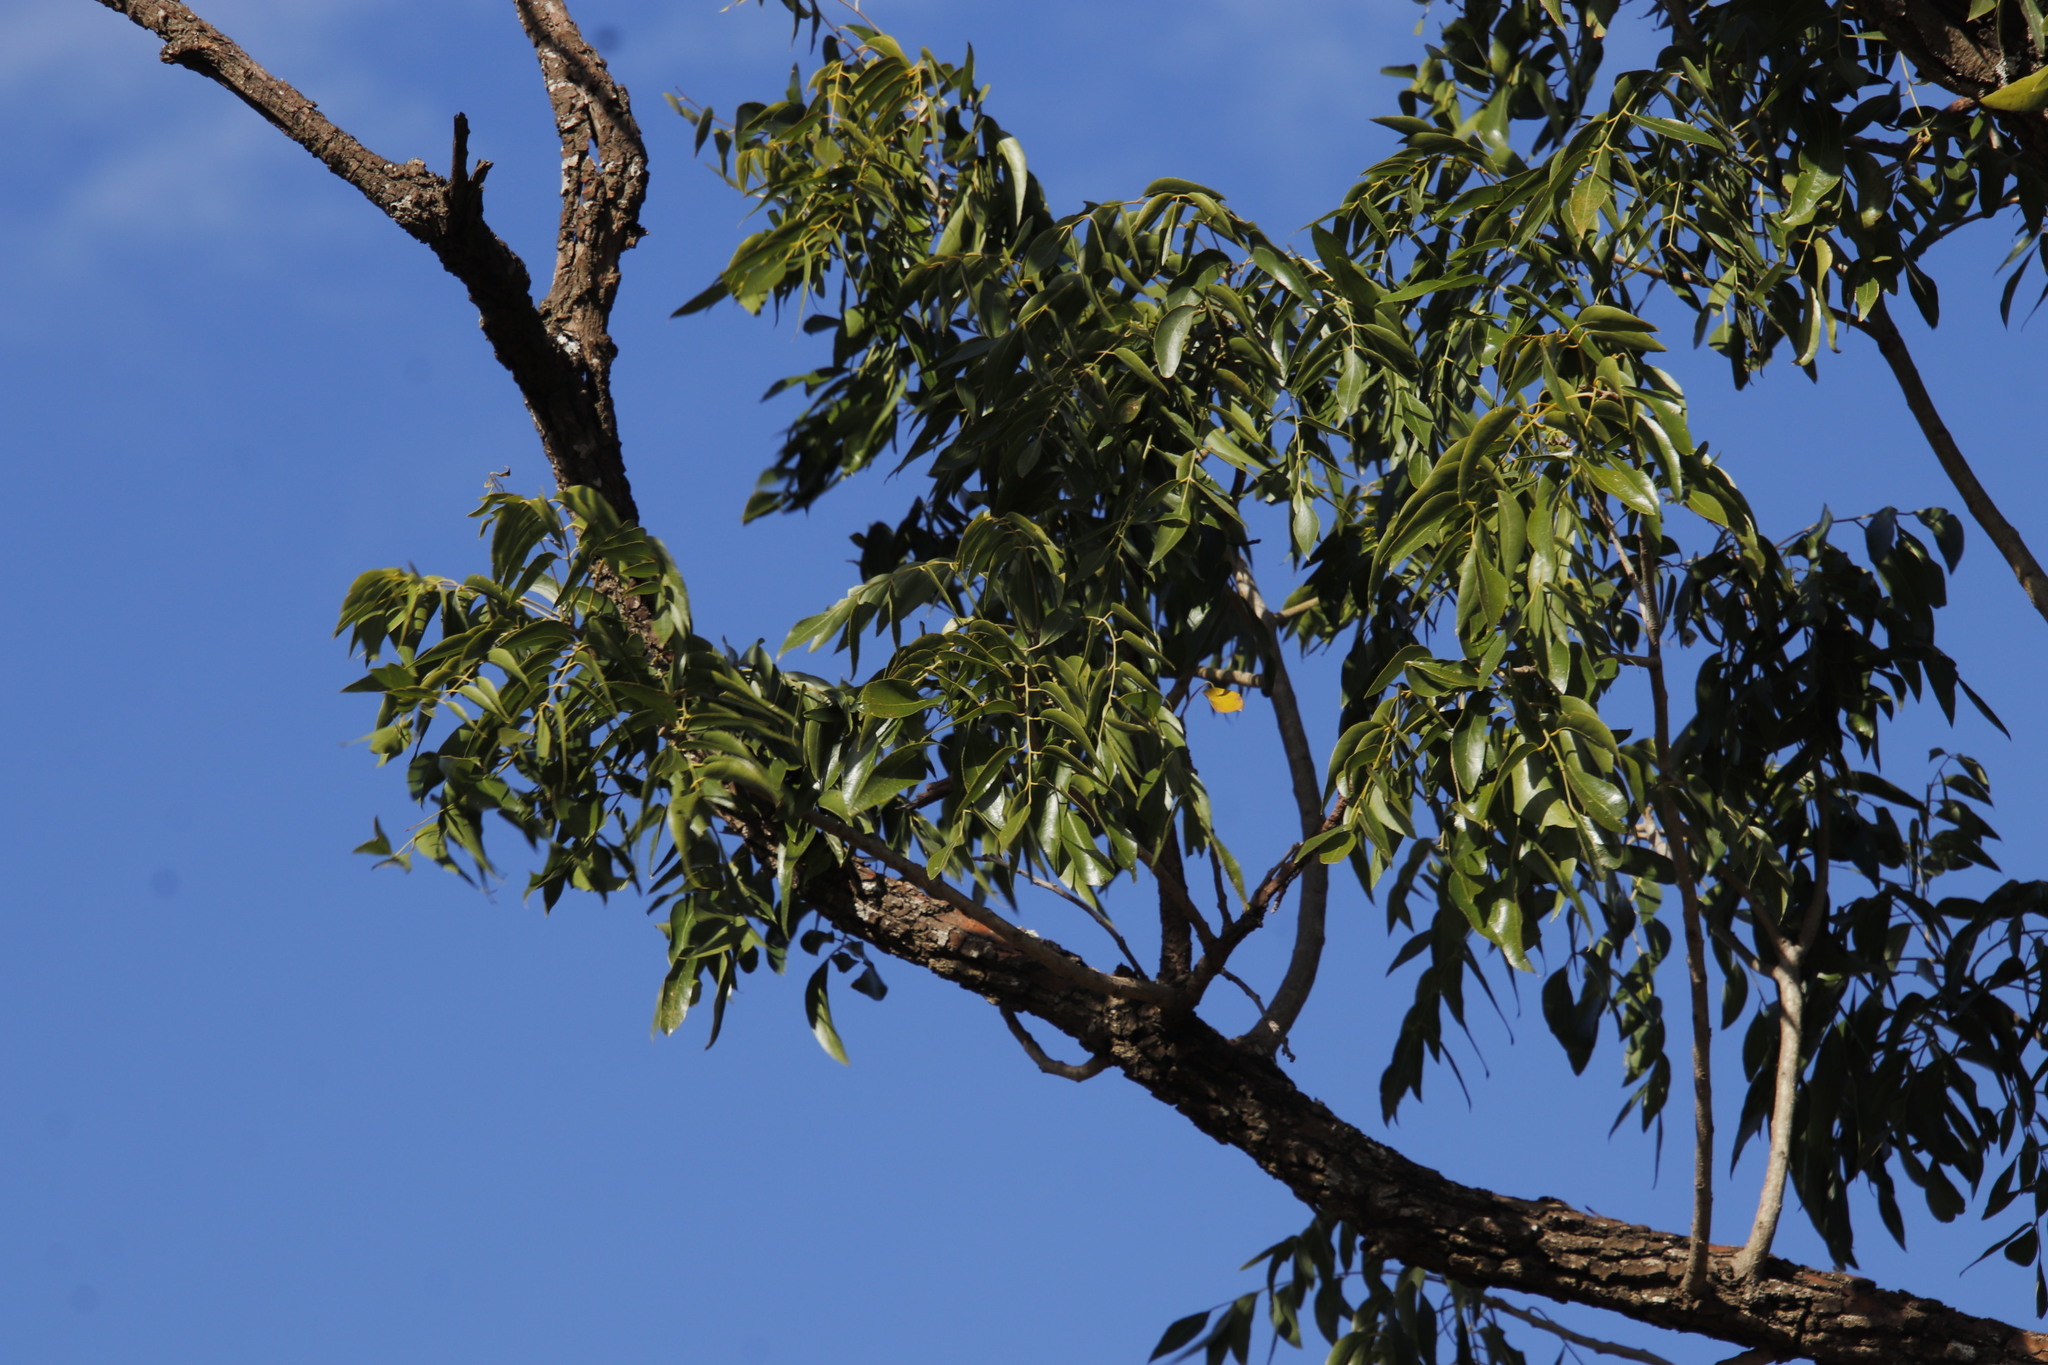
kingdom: Plantae
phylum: Tracheophyta
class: Magnoliopsida
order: Fabales
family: Fabaceae
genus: Bolusanthus
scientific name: Bolusanthus speciosus
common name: Tree wisteria
